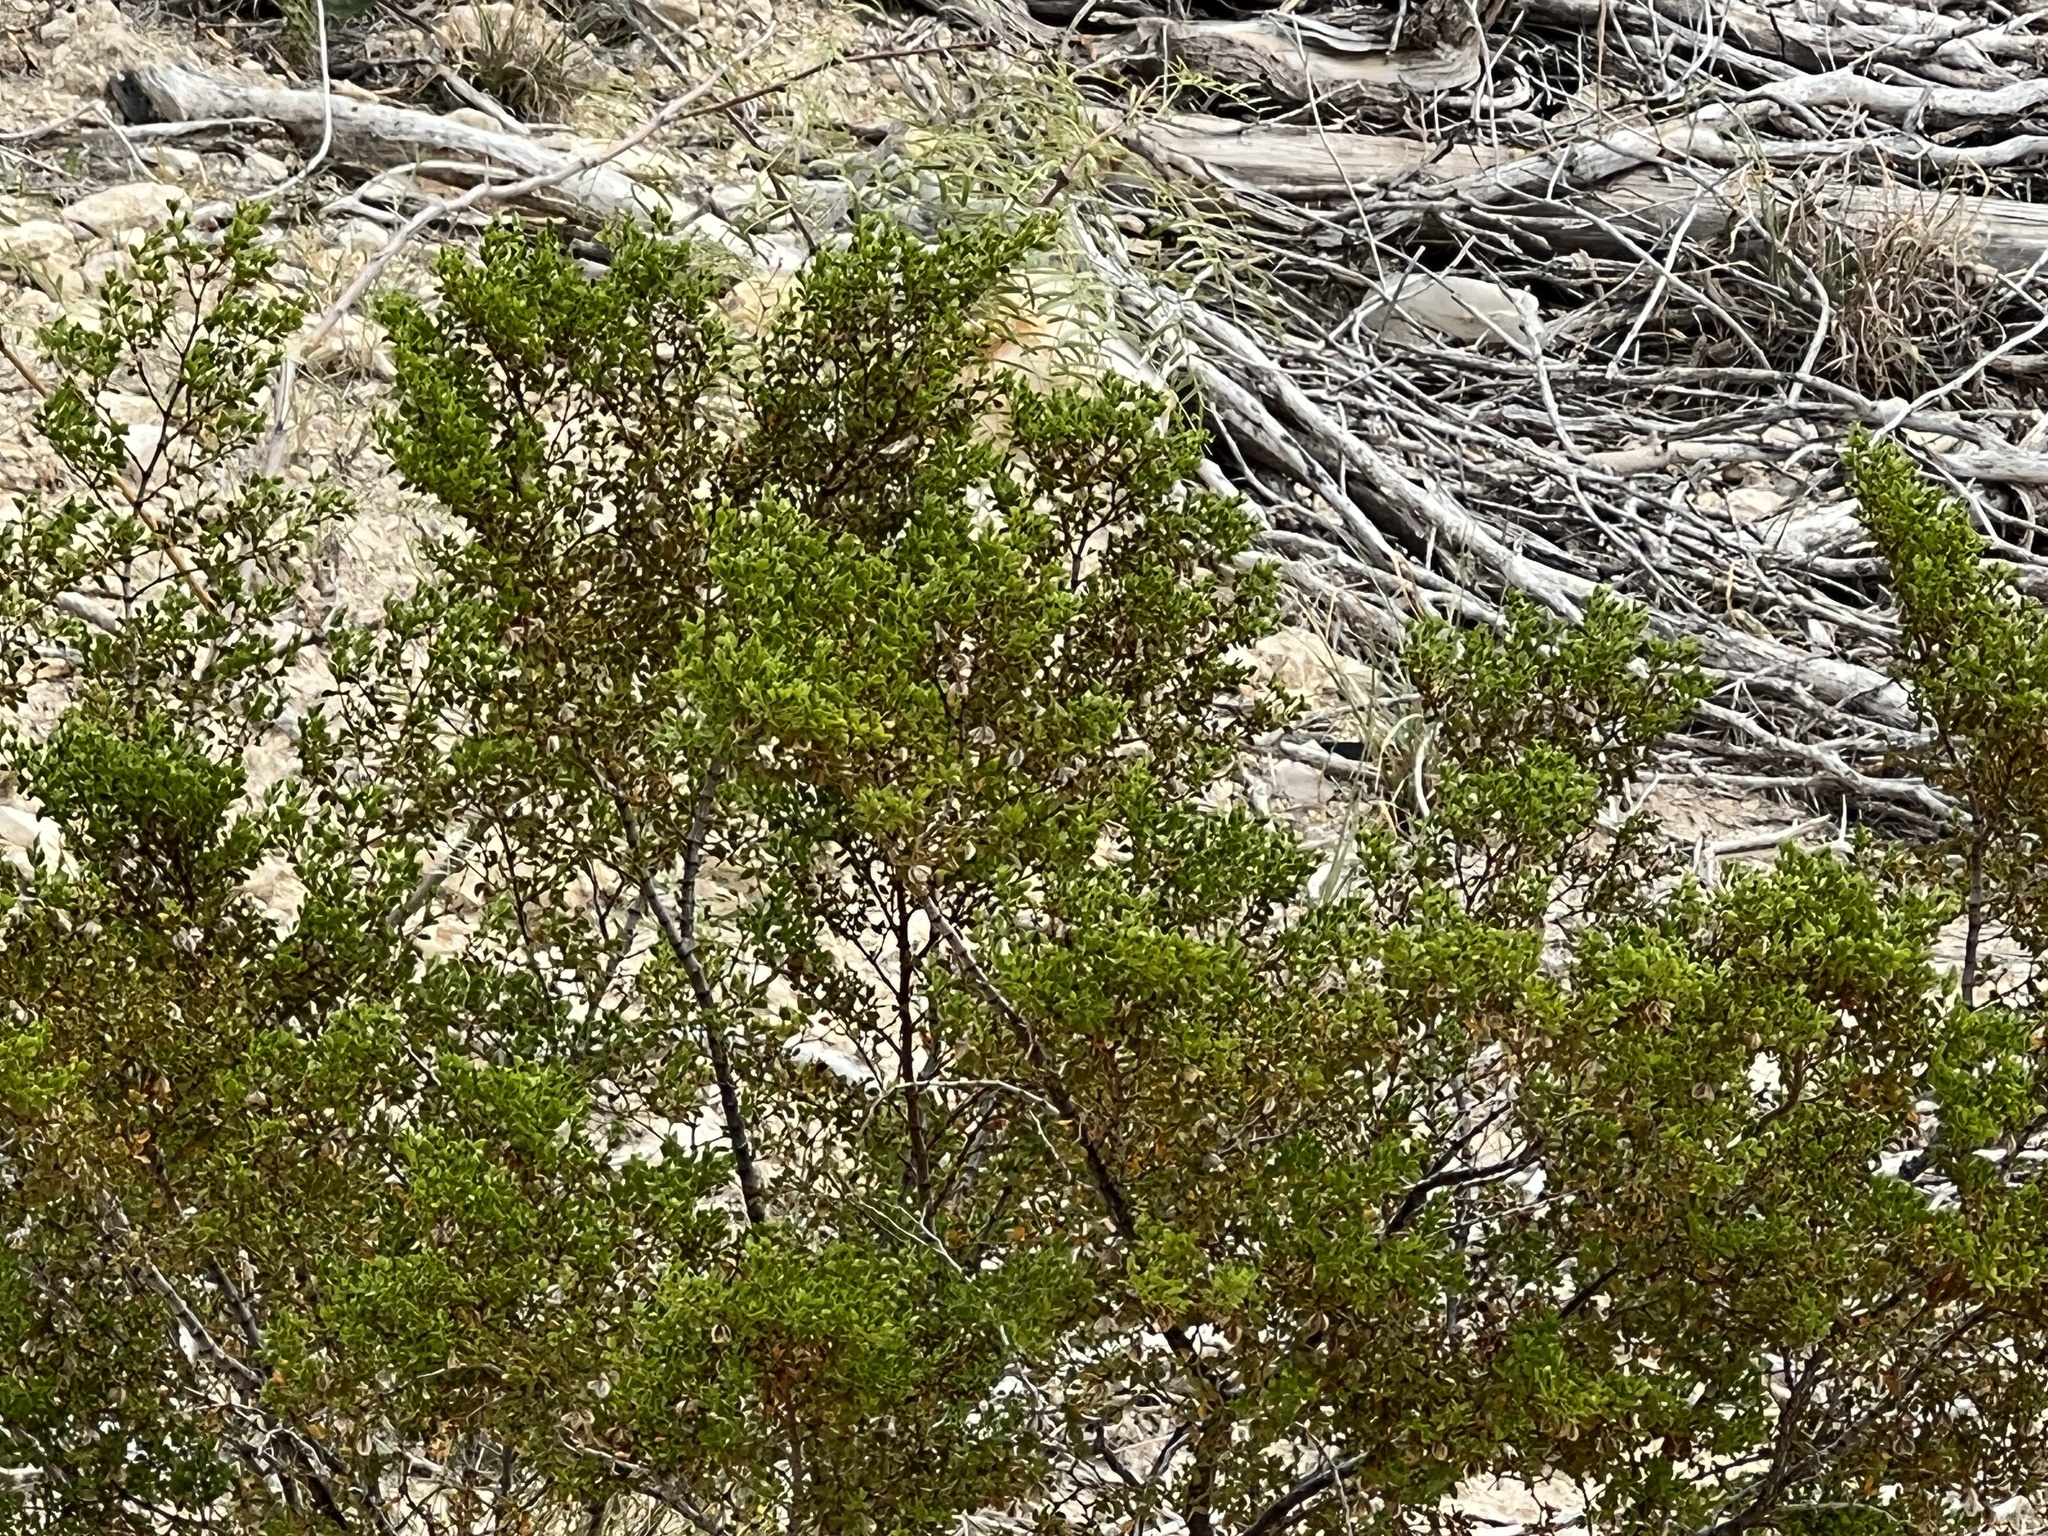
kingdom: Plantae
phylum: Tracheophyta
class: Magnoliopsida
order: Zygophyllales
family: Zygophyllaceae
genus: Larrea
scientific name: Larrea tridentata
